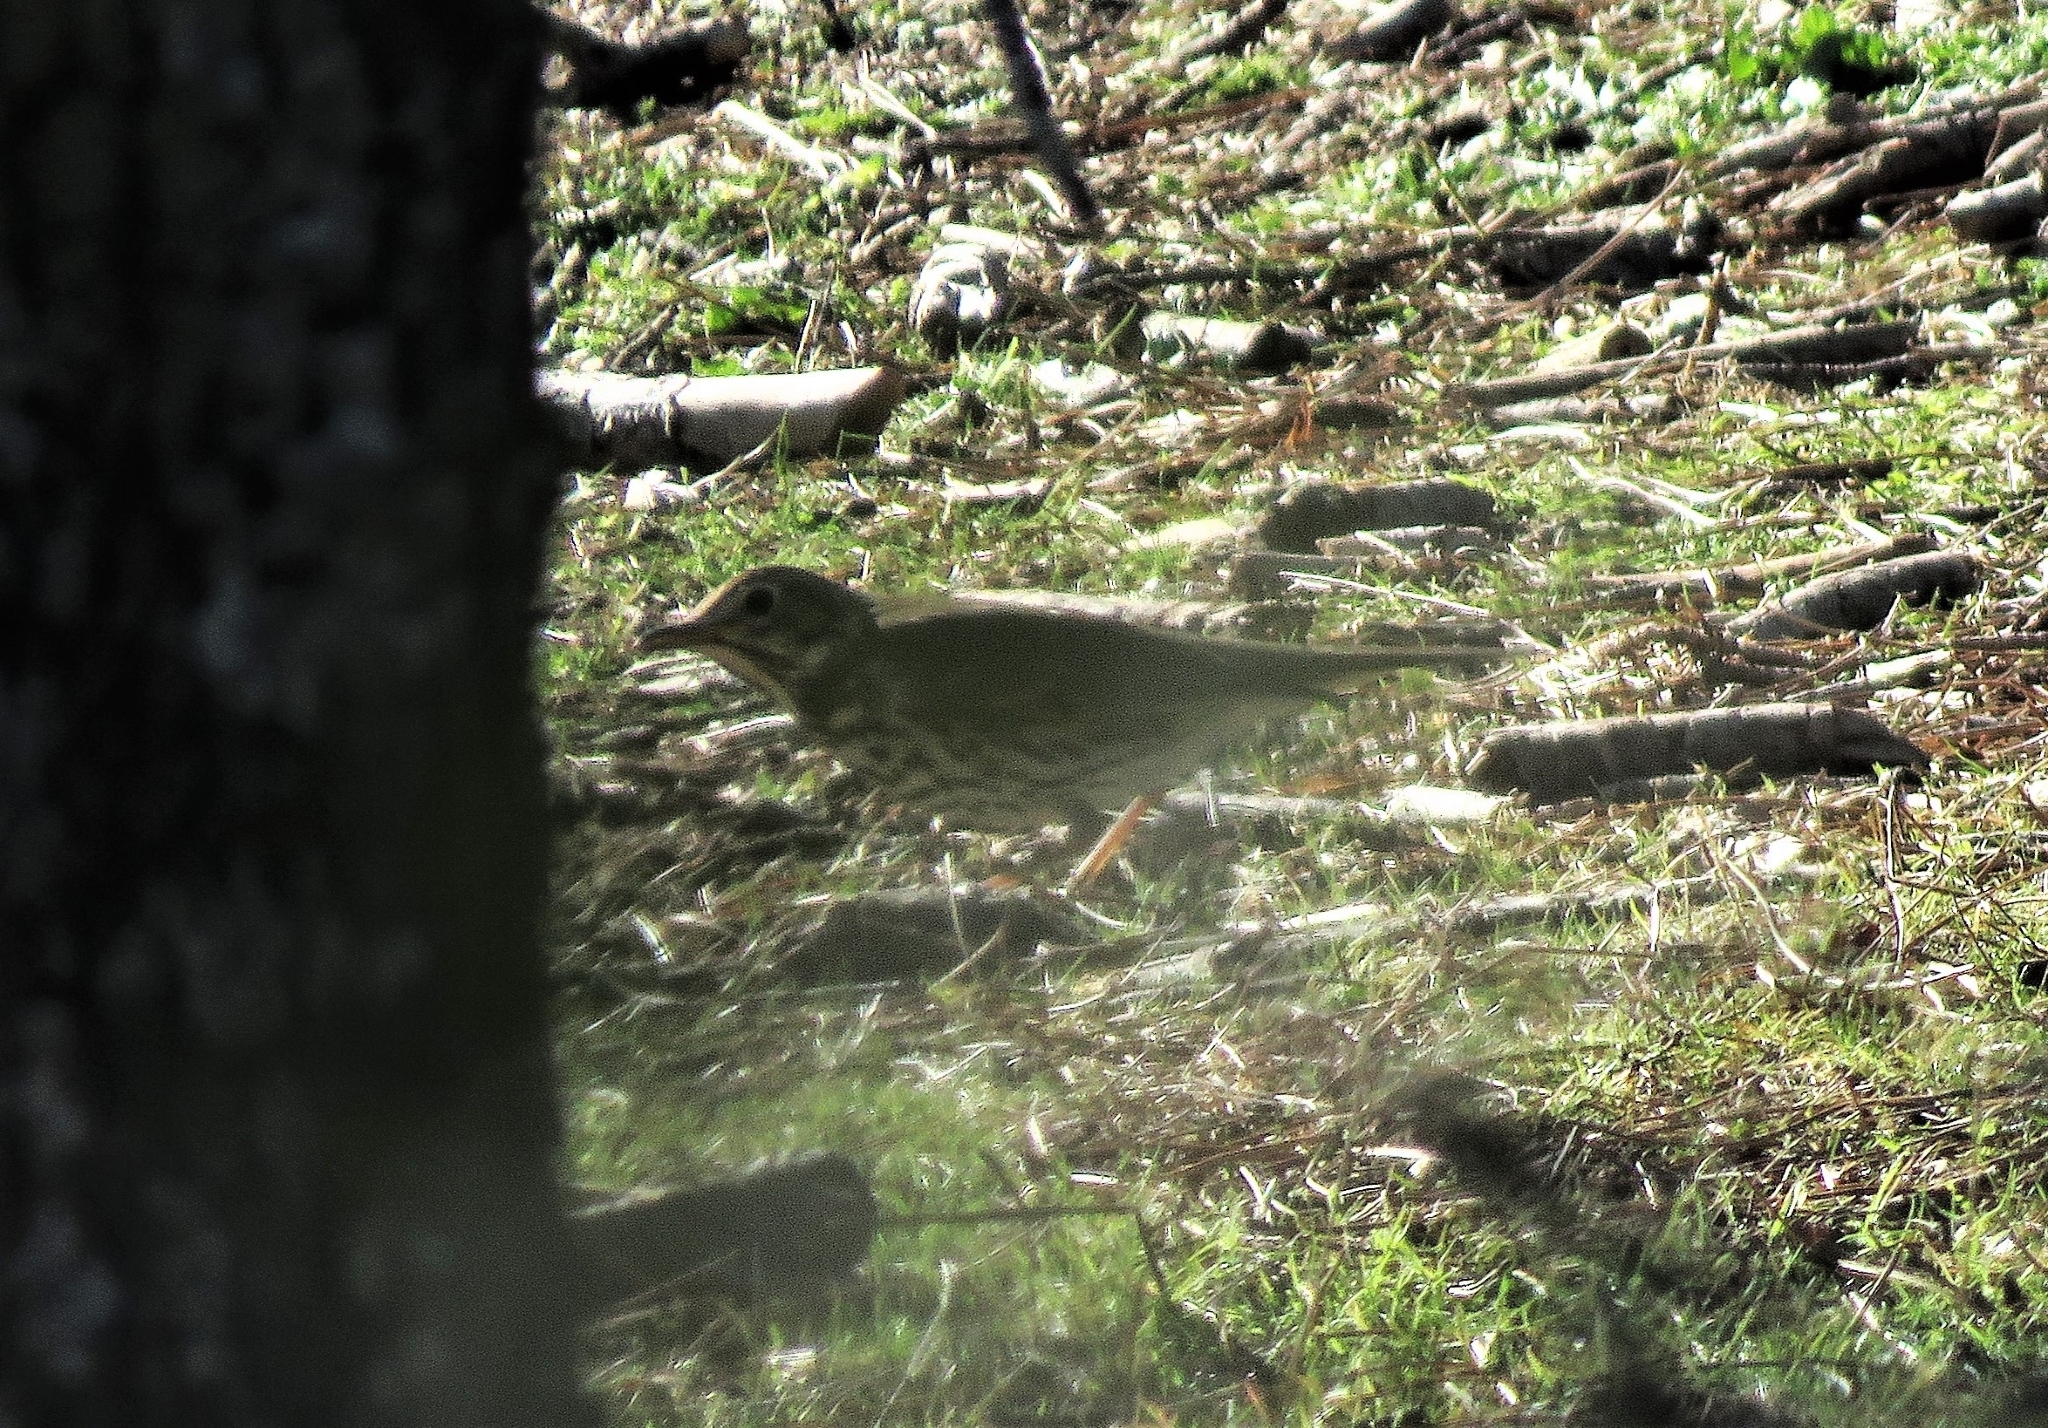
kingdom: Animalia
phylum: Chordata
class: Aves
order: Passeriformes
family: Turdidae
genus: Turdus
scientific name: Turdus philomelos
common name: Song thrush
